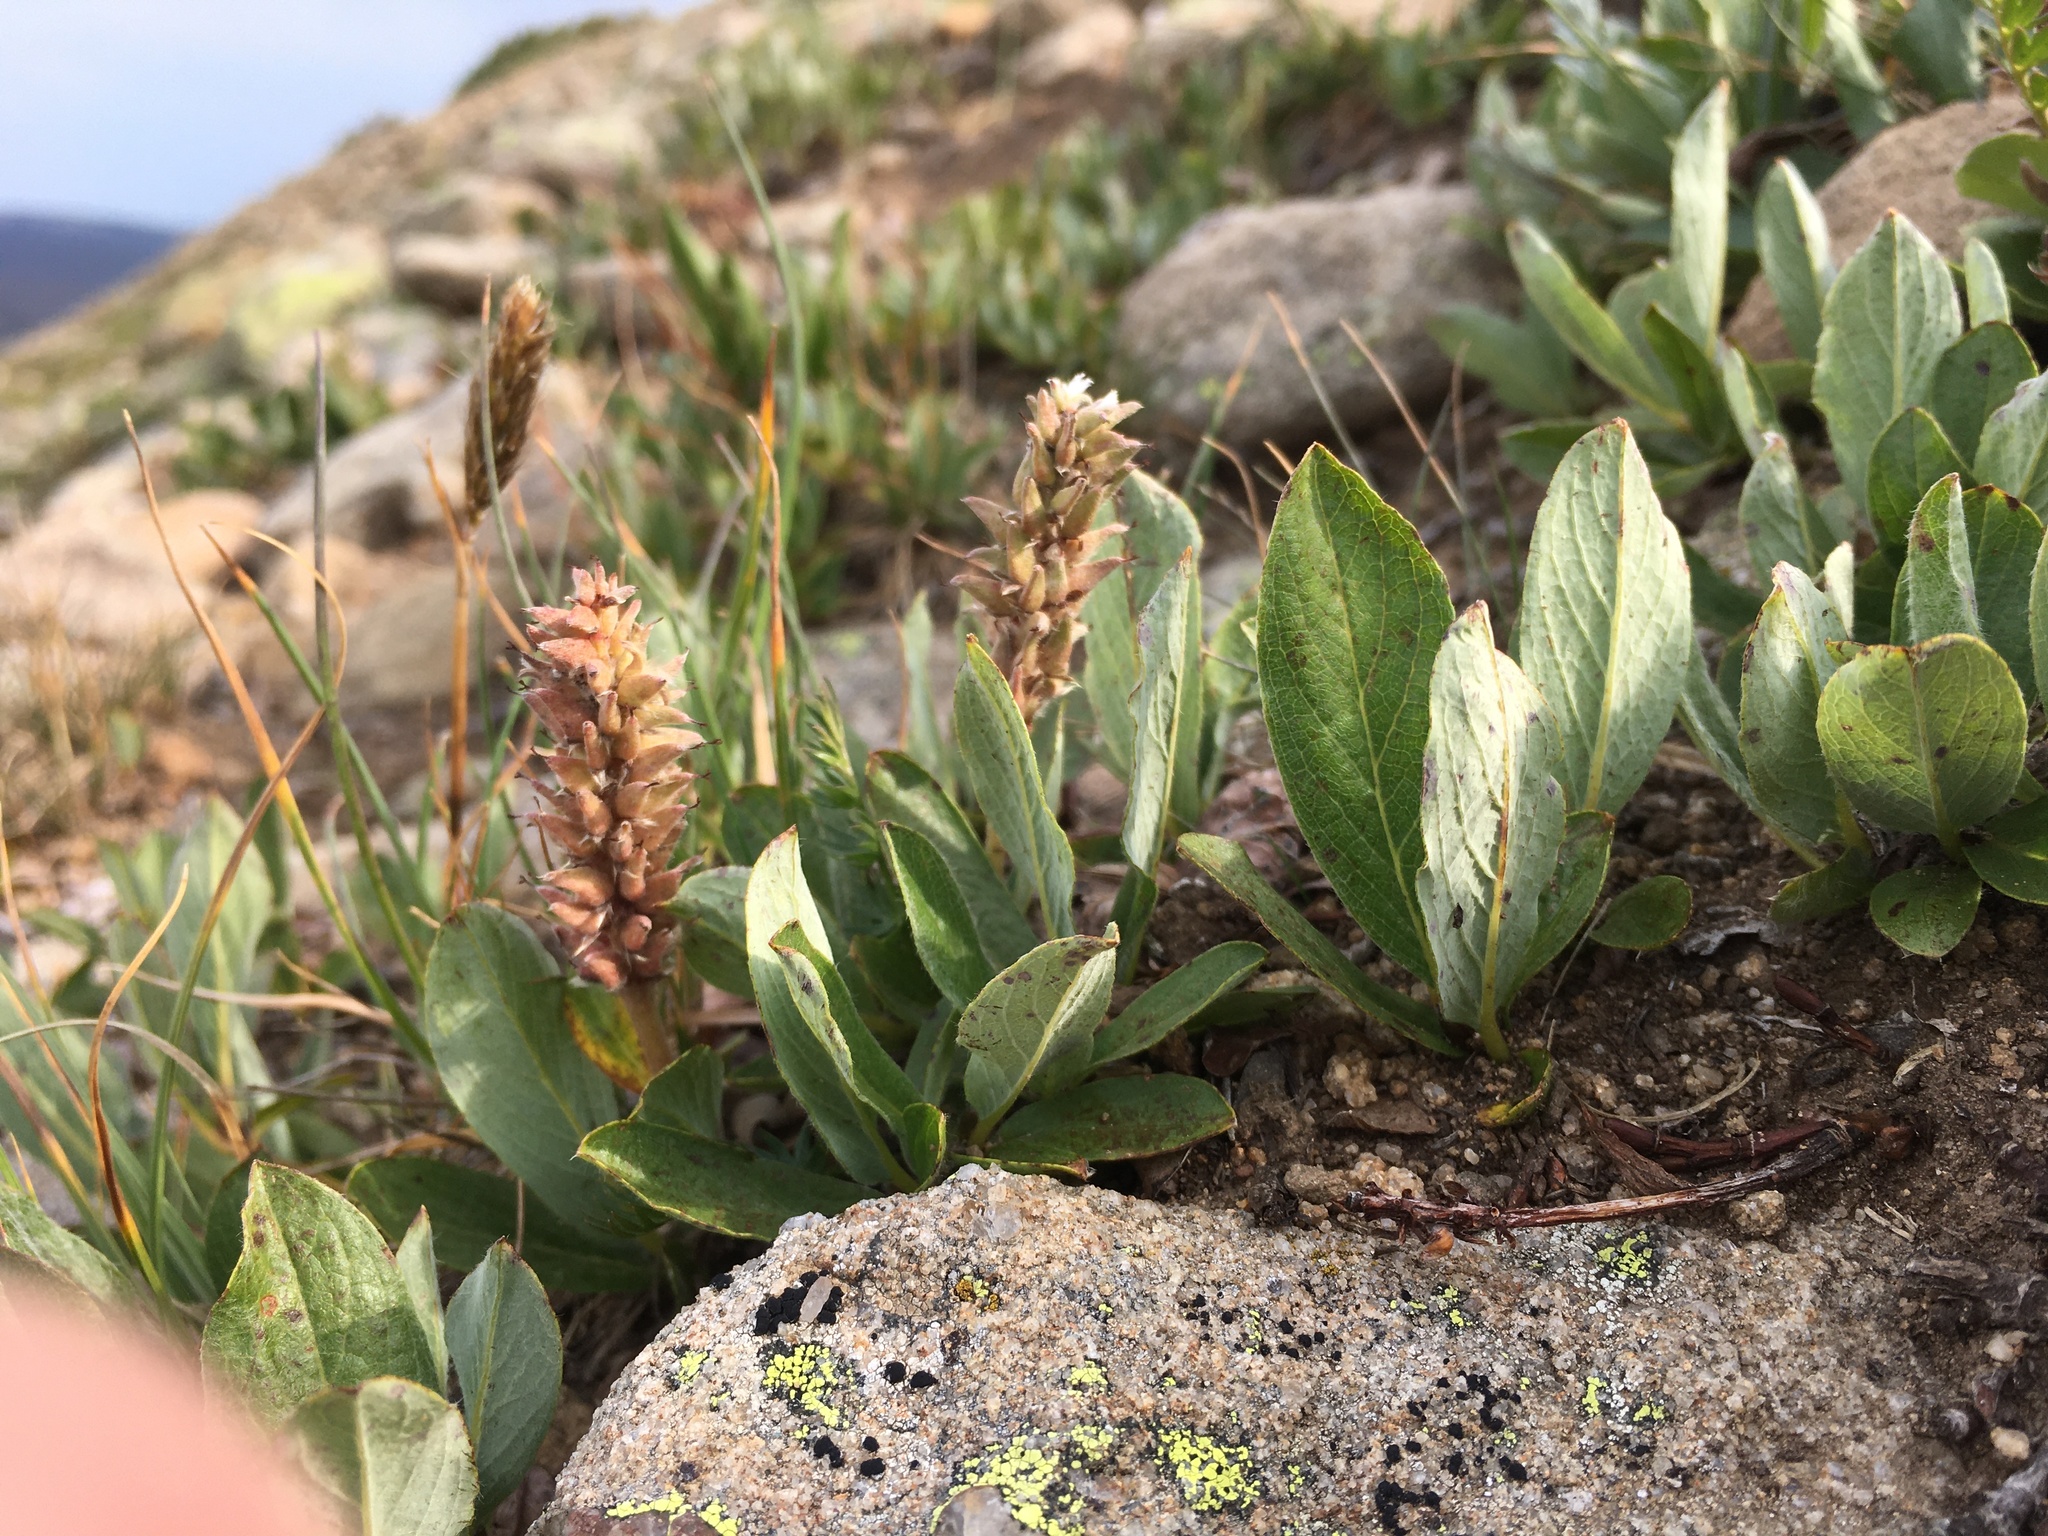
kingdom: Plantae
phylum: Tracheophyta
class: Magnoliopsida
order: Malpighiales
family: Salicaceae
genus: Salix
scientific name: Salix petrophila
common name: Rocky mountain willow
